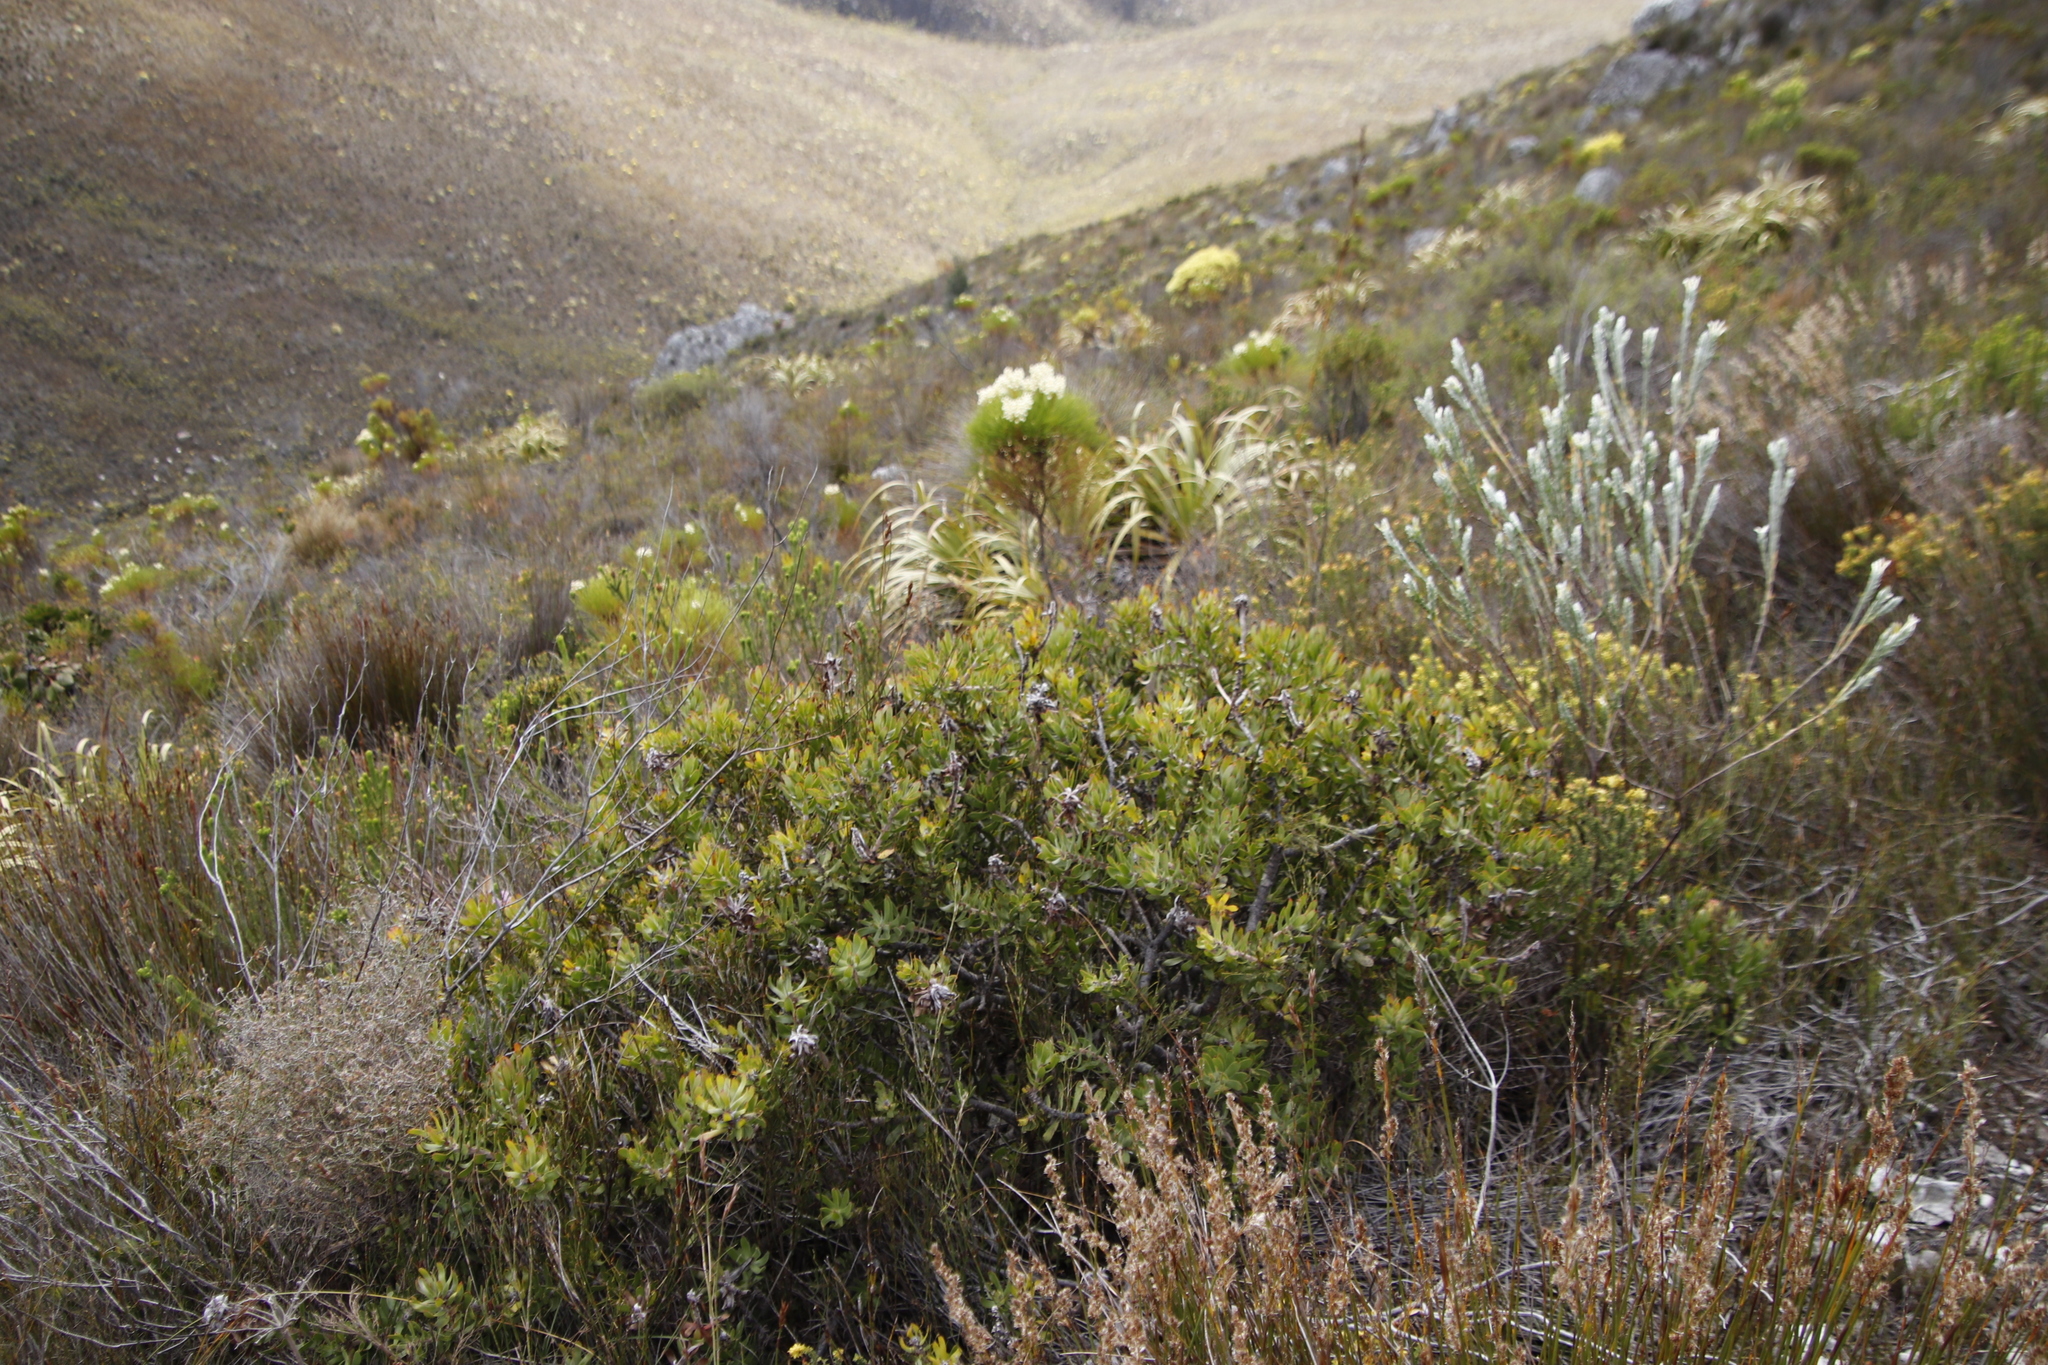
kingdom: Plantae
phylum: Tracheophyta
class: Magnoliopsida
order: Proteales
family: Proteaceae
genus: Mimetes
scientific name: Mimetes cucullatus
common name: Common pagoda
